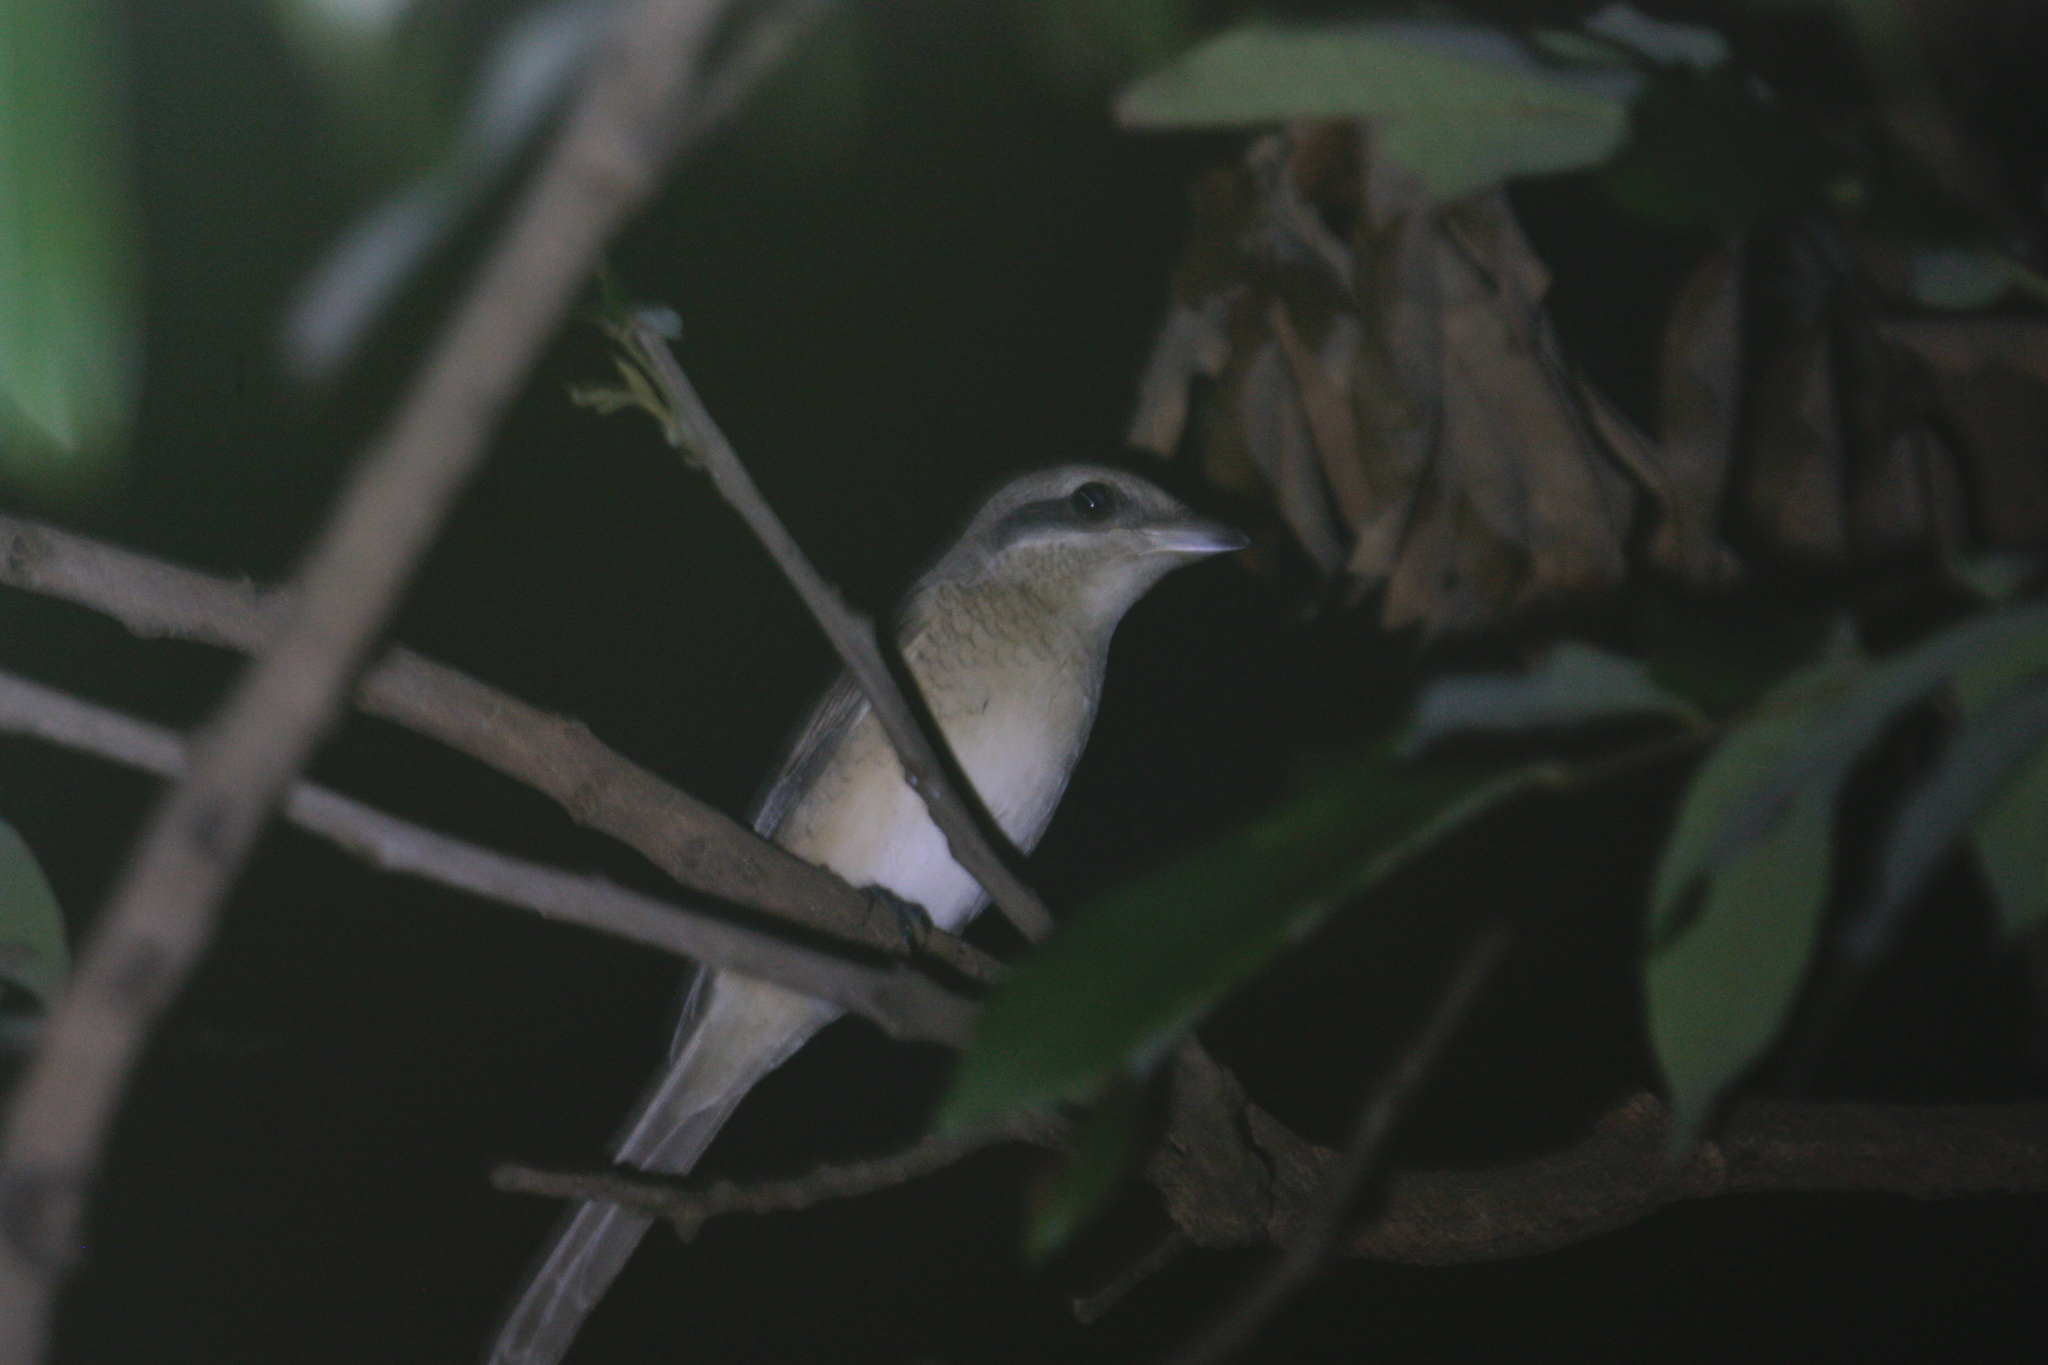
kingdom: Animalia
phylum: Chordata
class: Aves
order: Passeriformes
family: Laniidae
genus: Lanius
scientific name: Lanius cristatus
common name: Brown shrike
